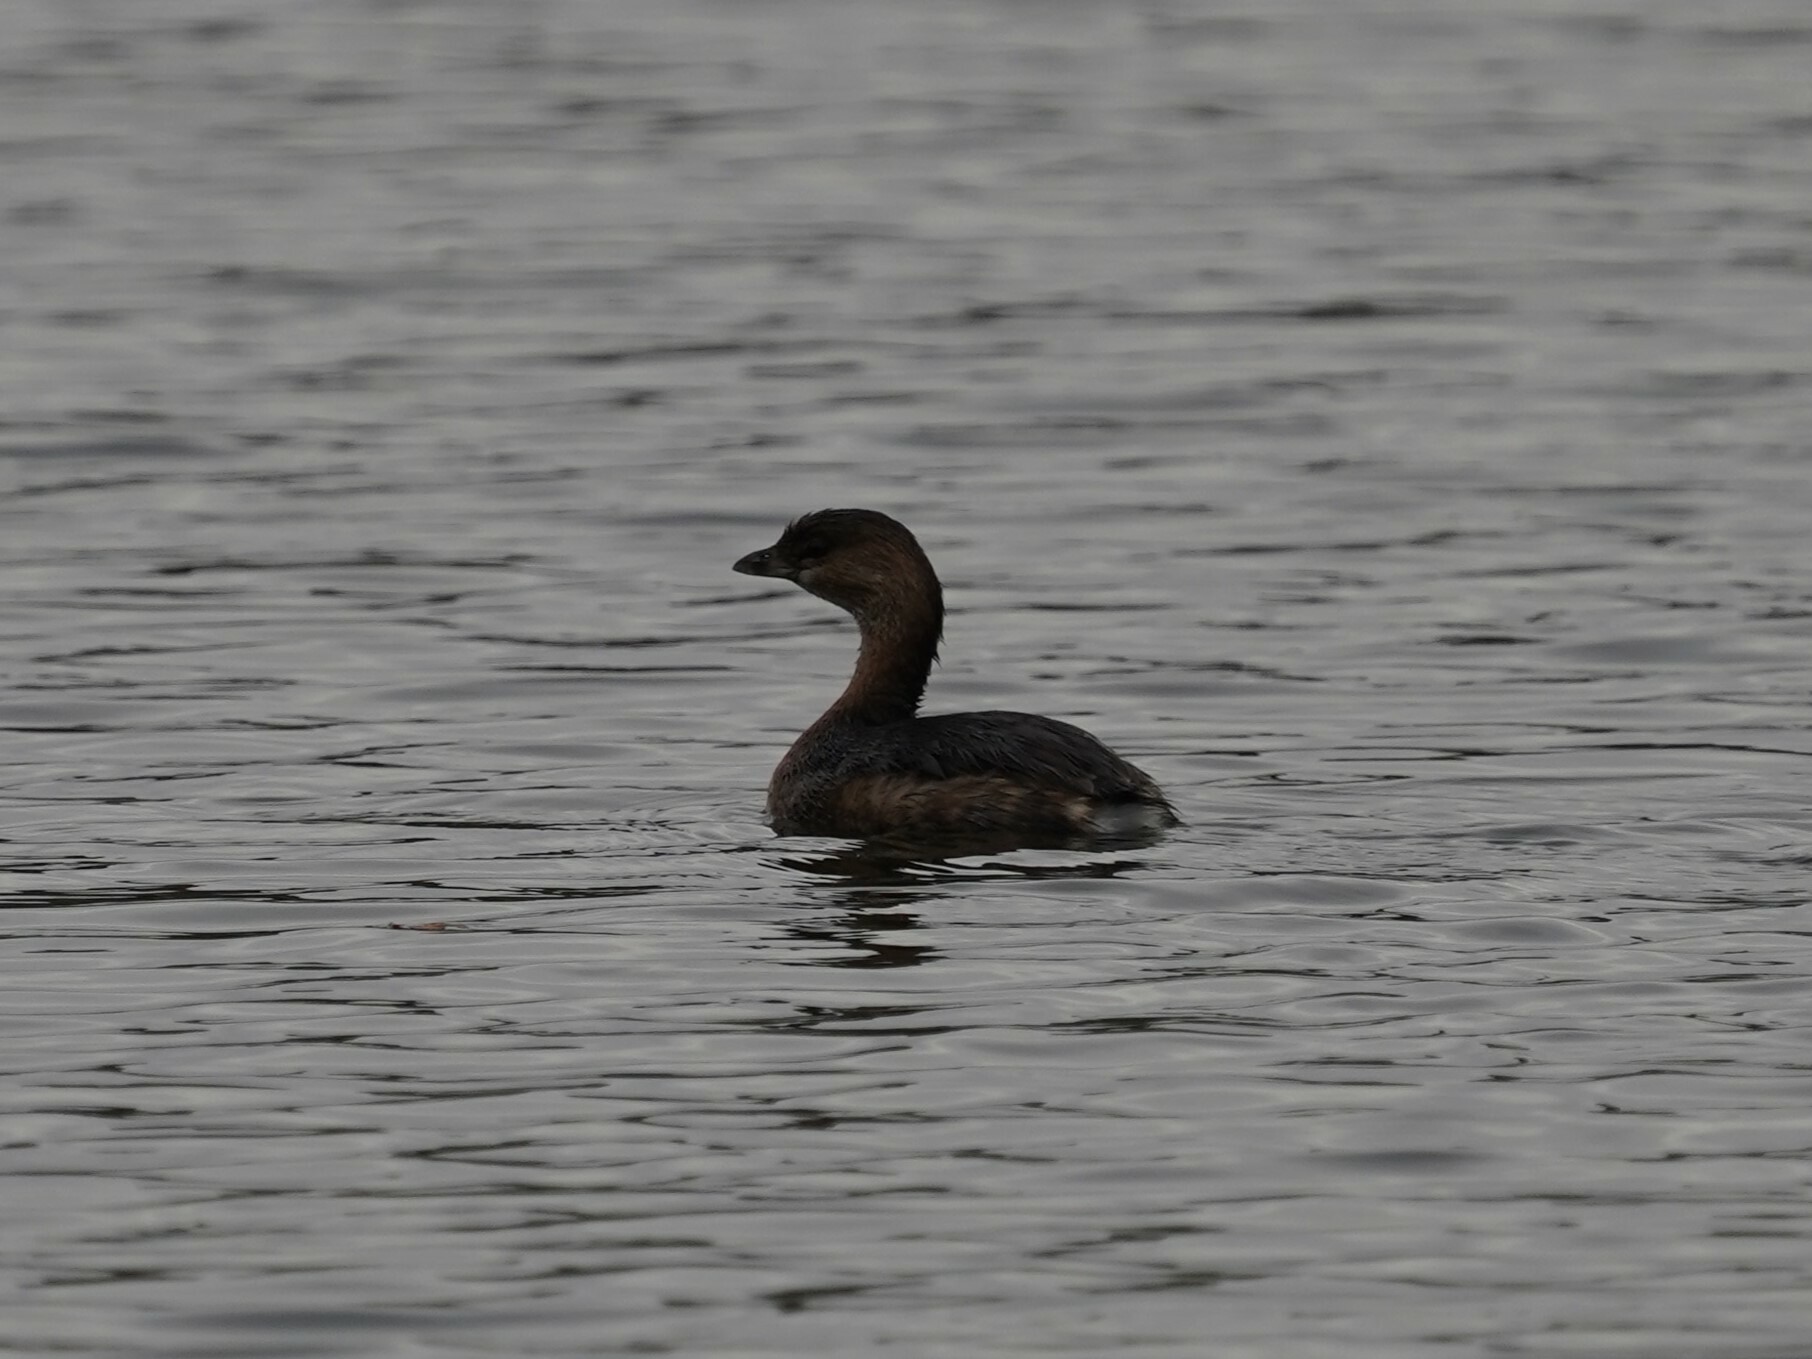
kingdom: Animalia
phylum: Chordata
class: Aves
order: Podicipediformes
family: Podicipedidae
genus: Podilymbus
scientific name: Podilymbus podiceps
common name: Pied-billed grebe
